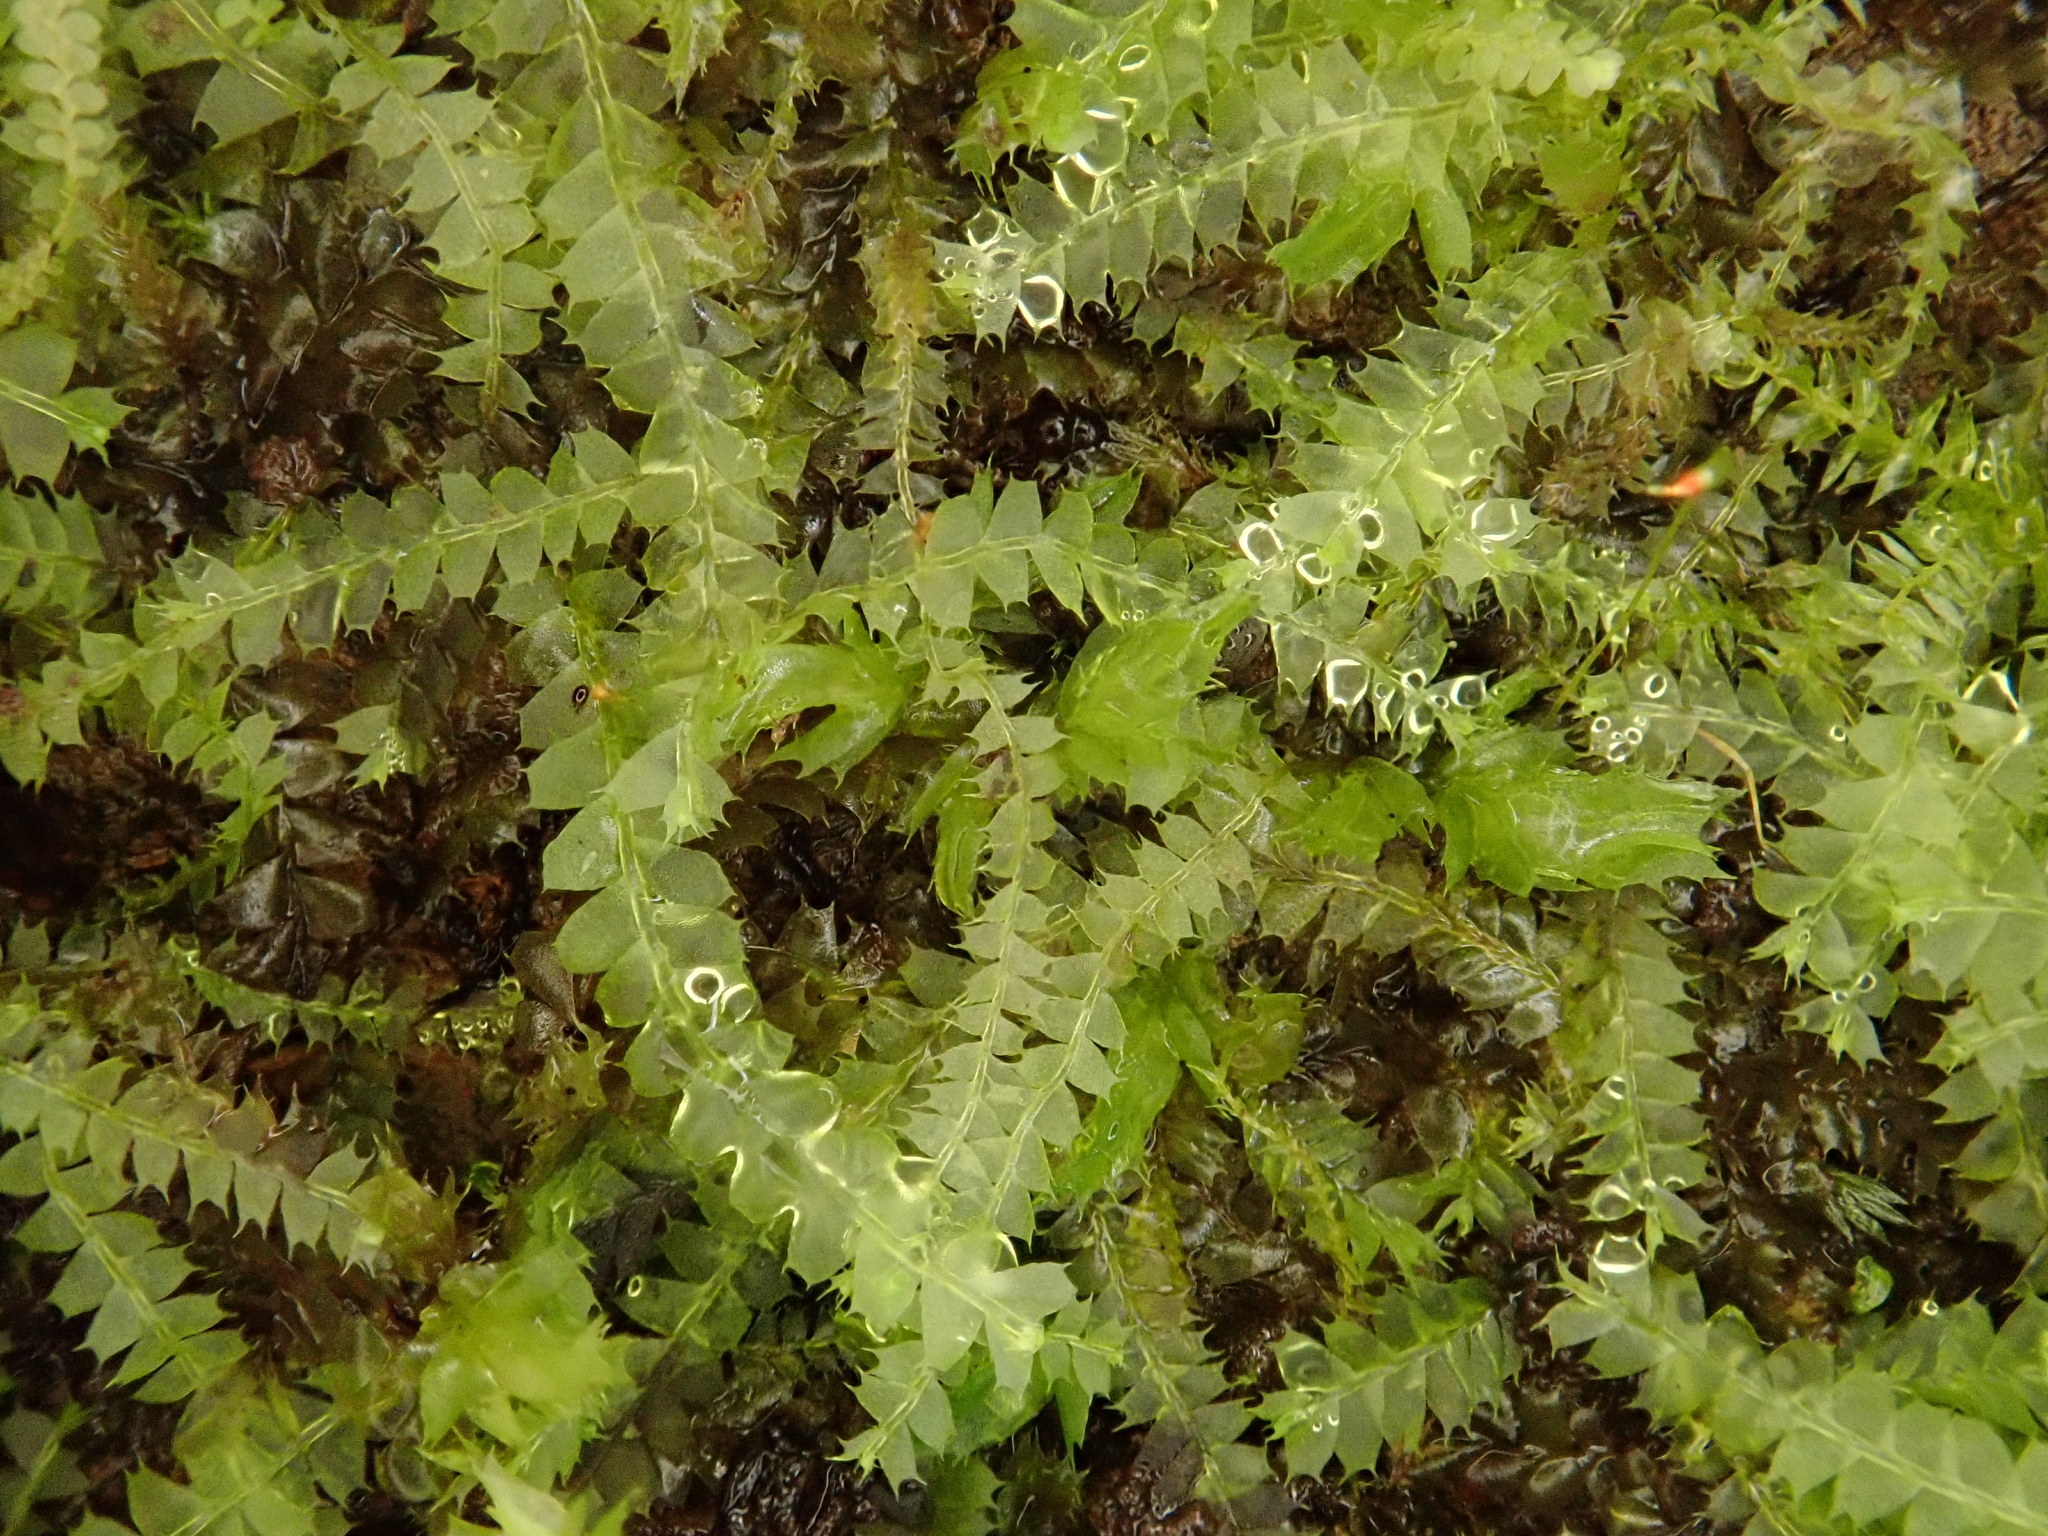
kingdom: Plantae
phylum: Marchantiophyta
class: Jungermanniopsida
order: Jungermanniales
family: Lophocoleaceae
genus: Lophocolea
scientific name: Lophocolea bidentata
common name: Bifid crestwort
